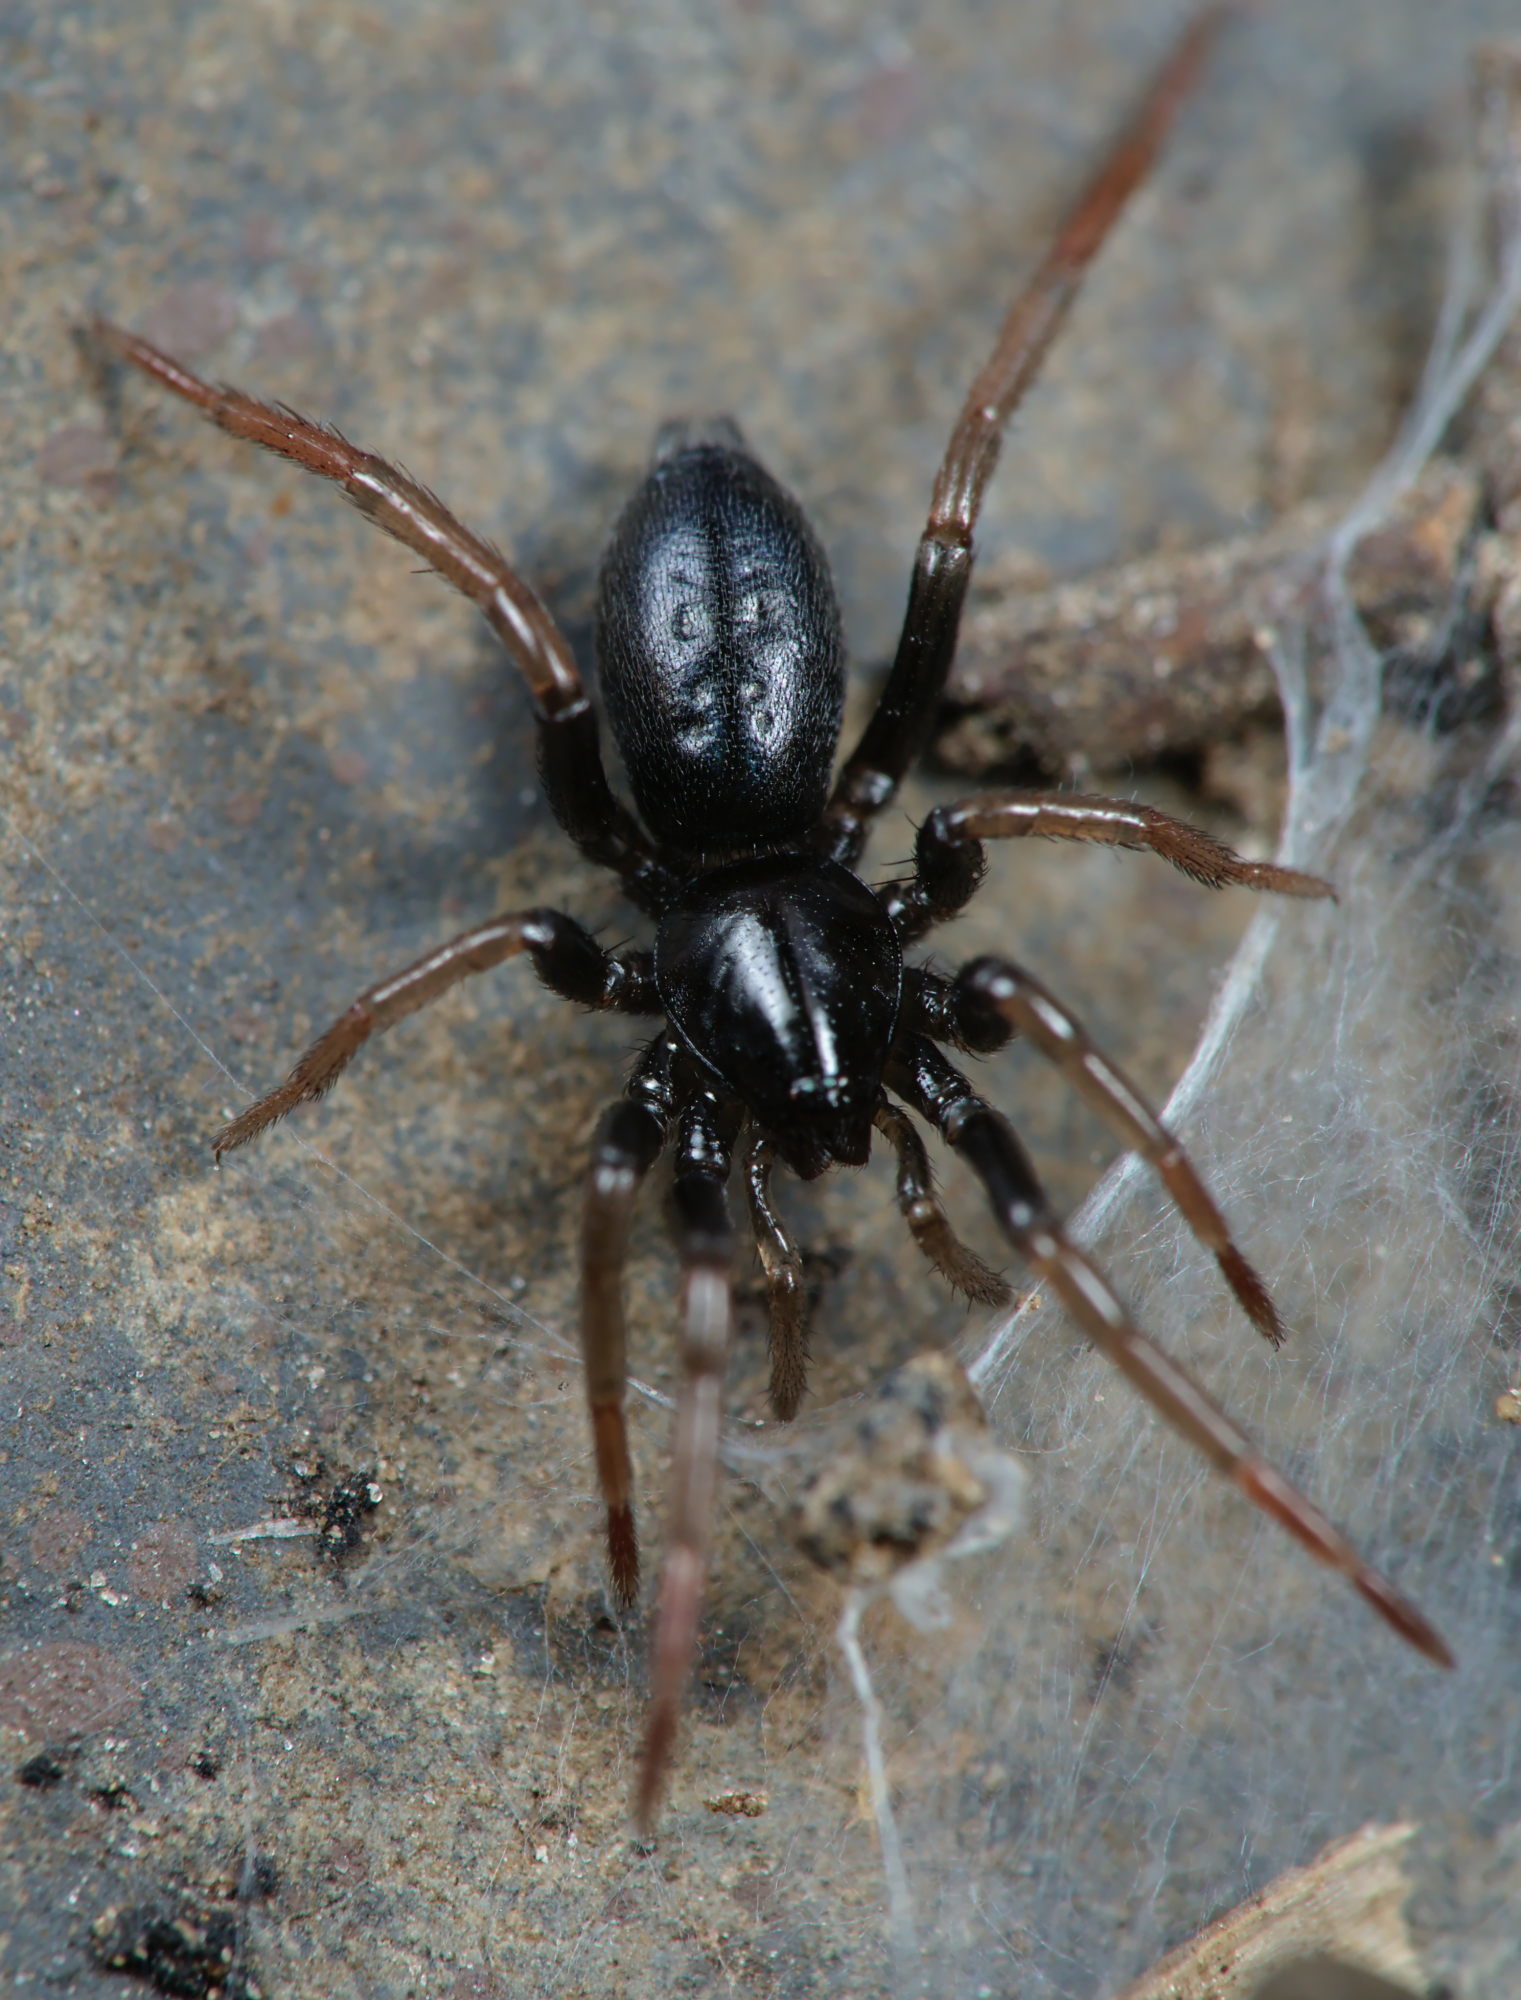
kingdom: Animalia
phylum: Arthropoda
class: Arachnida
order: Araneae
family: Gnaphosidae
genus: Trachyzelotes
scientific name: Trachyzelotes pedestris
